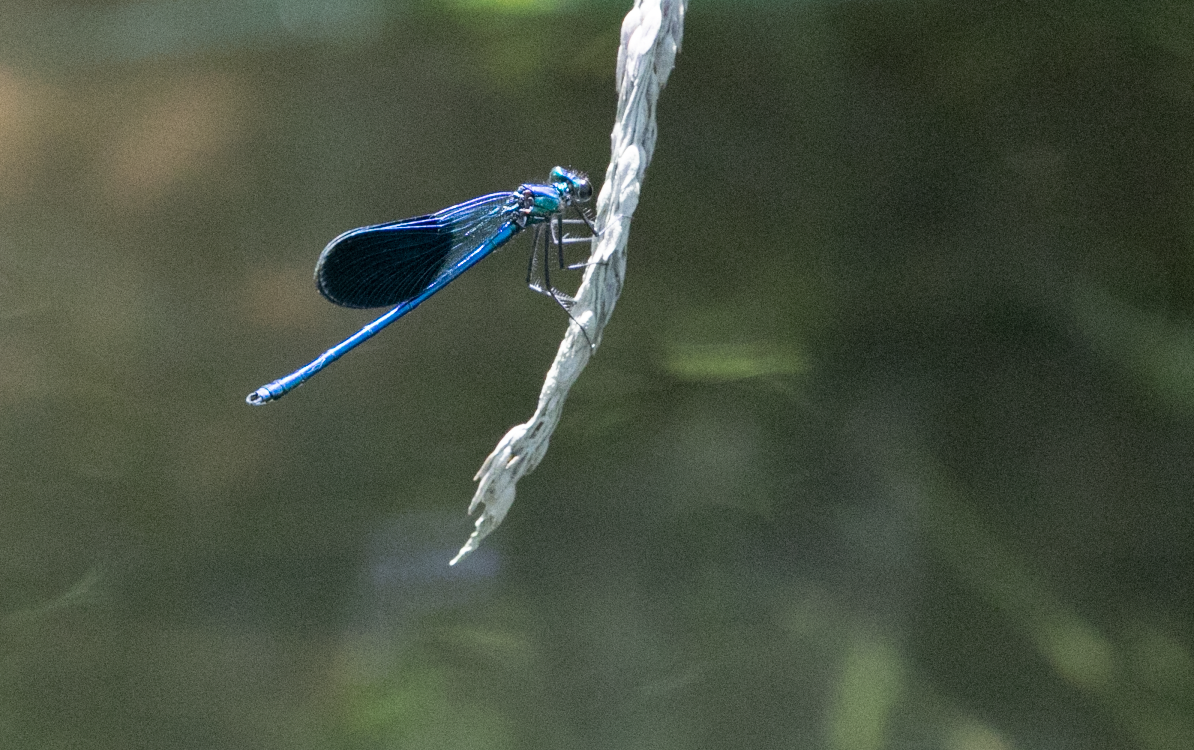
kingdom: Animalia
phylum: Arthropoda
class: Insecta
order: Odonata
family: Calopterygidae
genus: Calopteryx
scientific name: Calopteryx splendens
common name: Banded demoiselle
